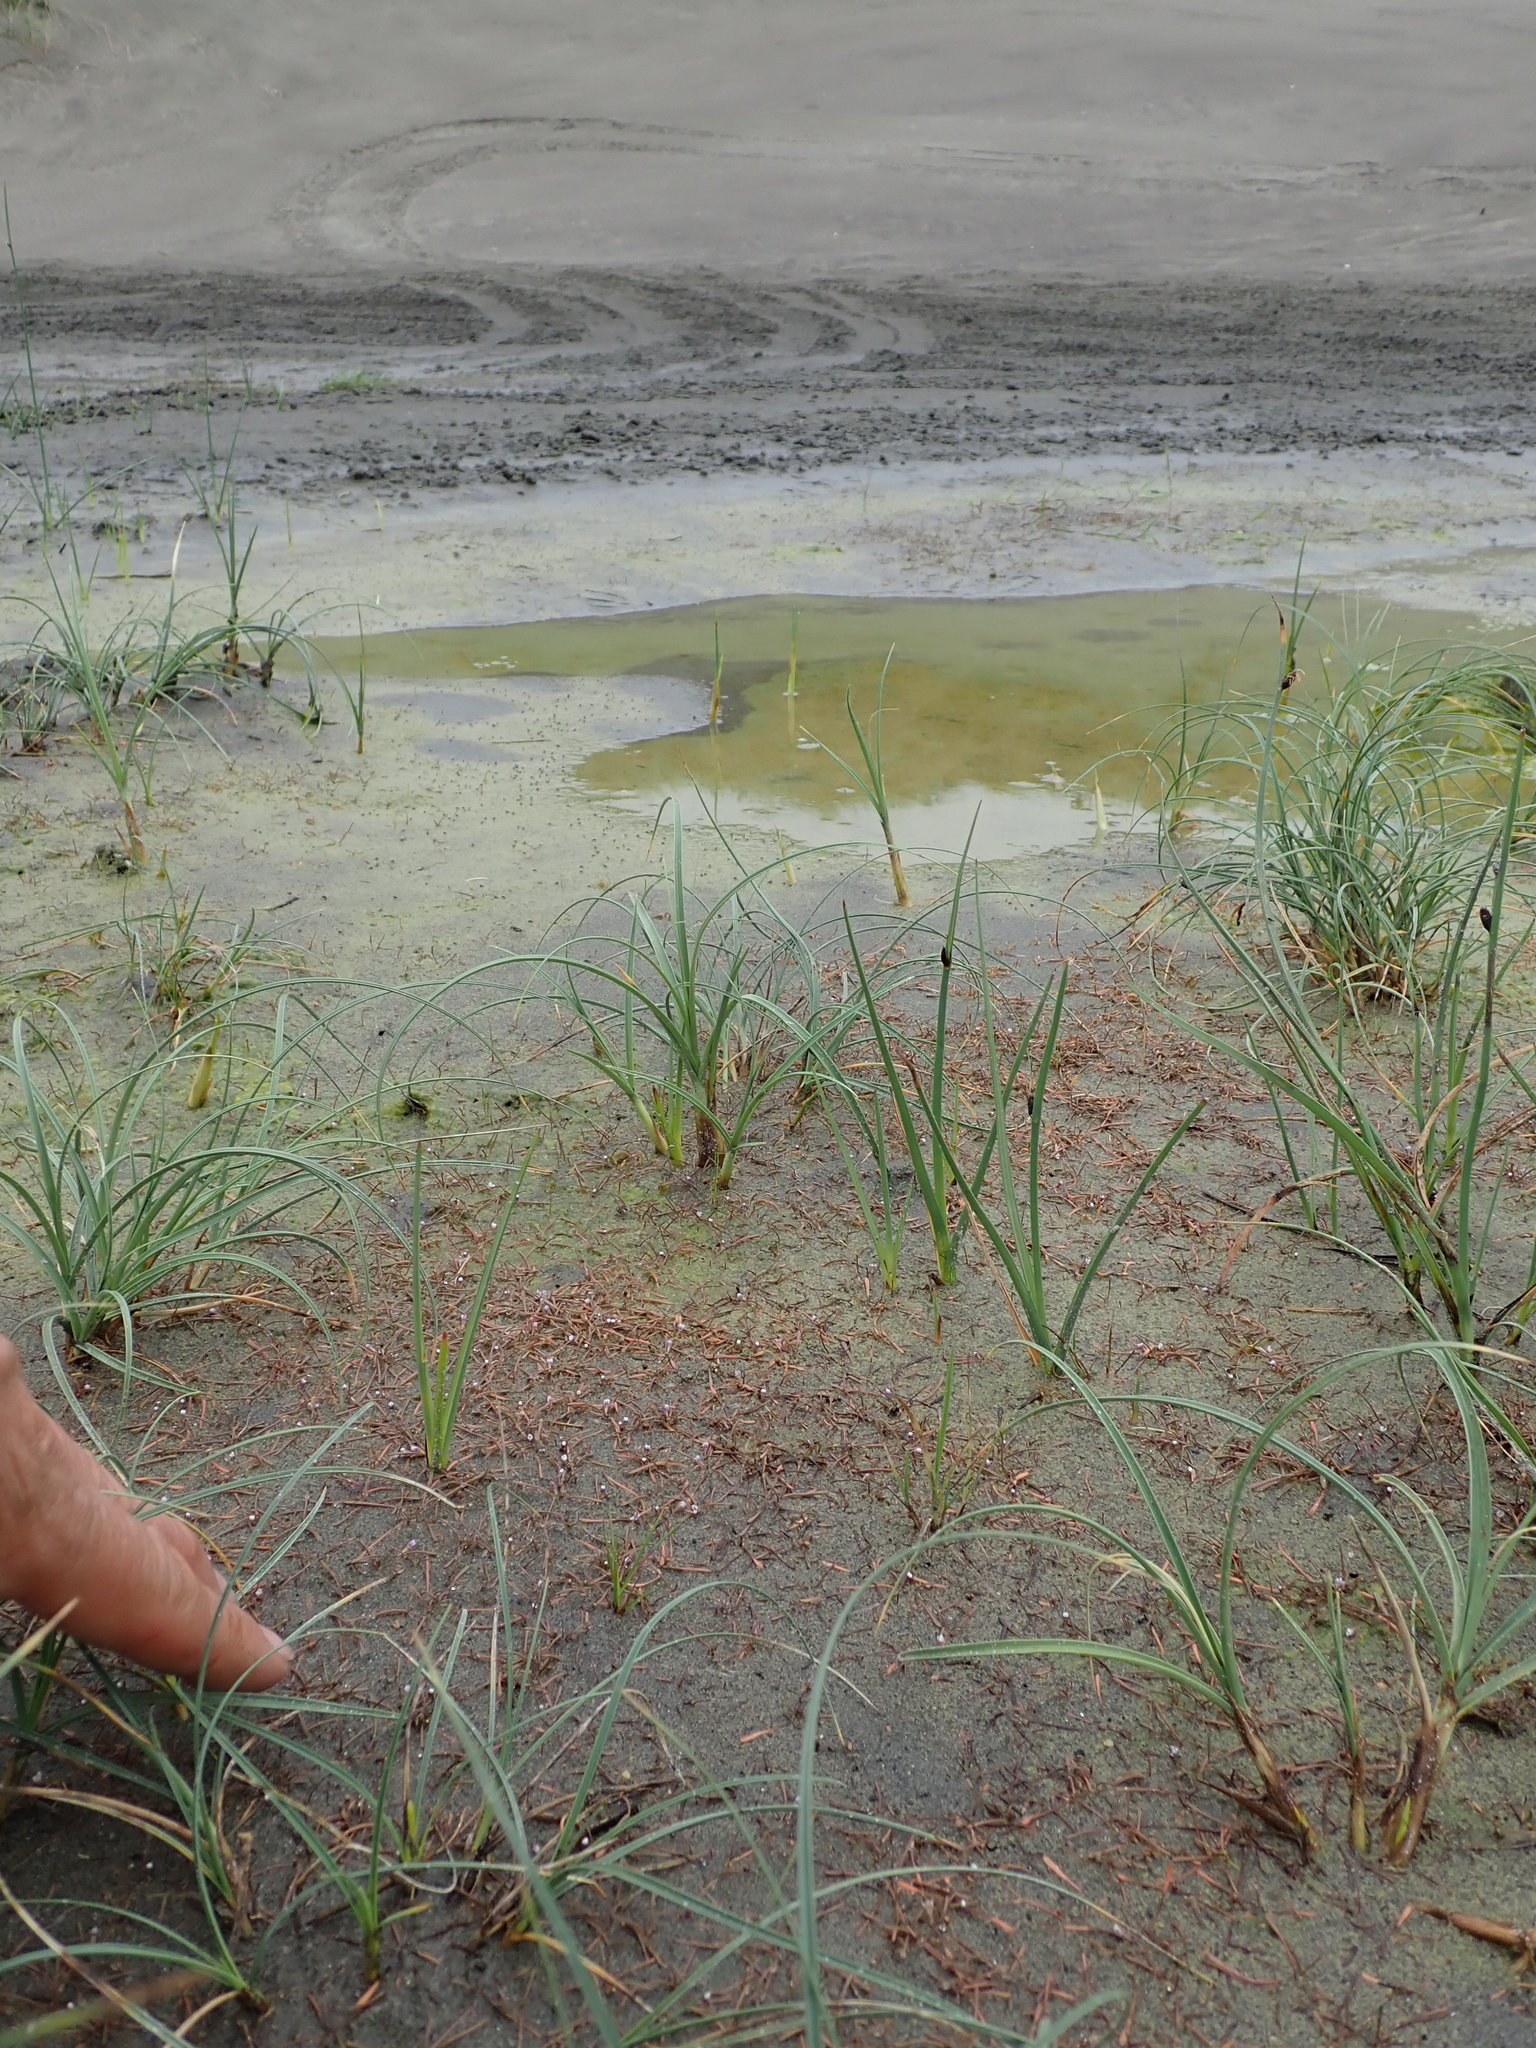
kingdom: Fungi
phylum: Chytridiomycota
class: Chytridiomycetes
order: Chytridiales
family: Synchytriaceae
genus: Synchytrium
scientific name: Synchytrium limosellae
